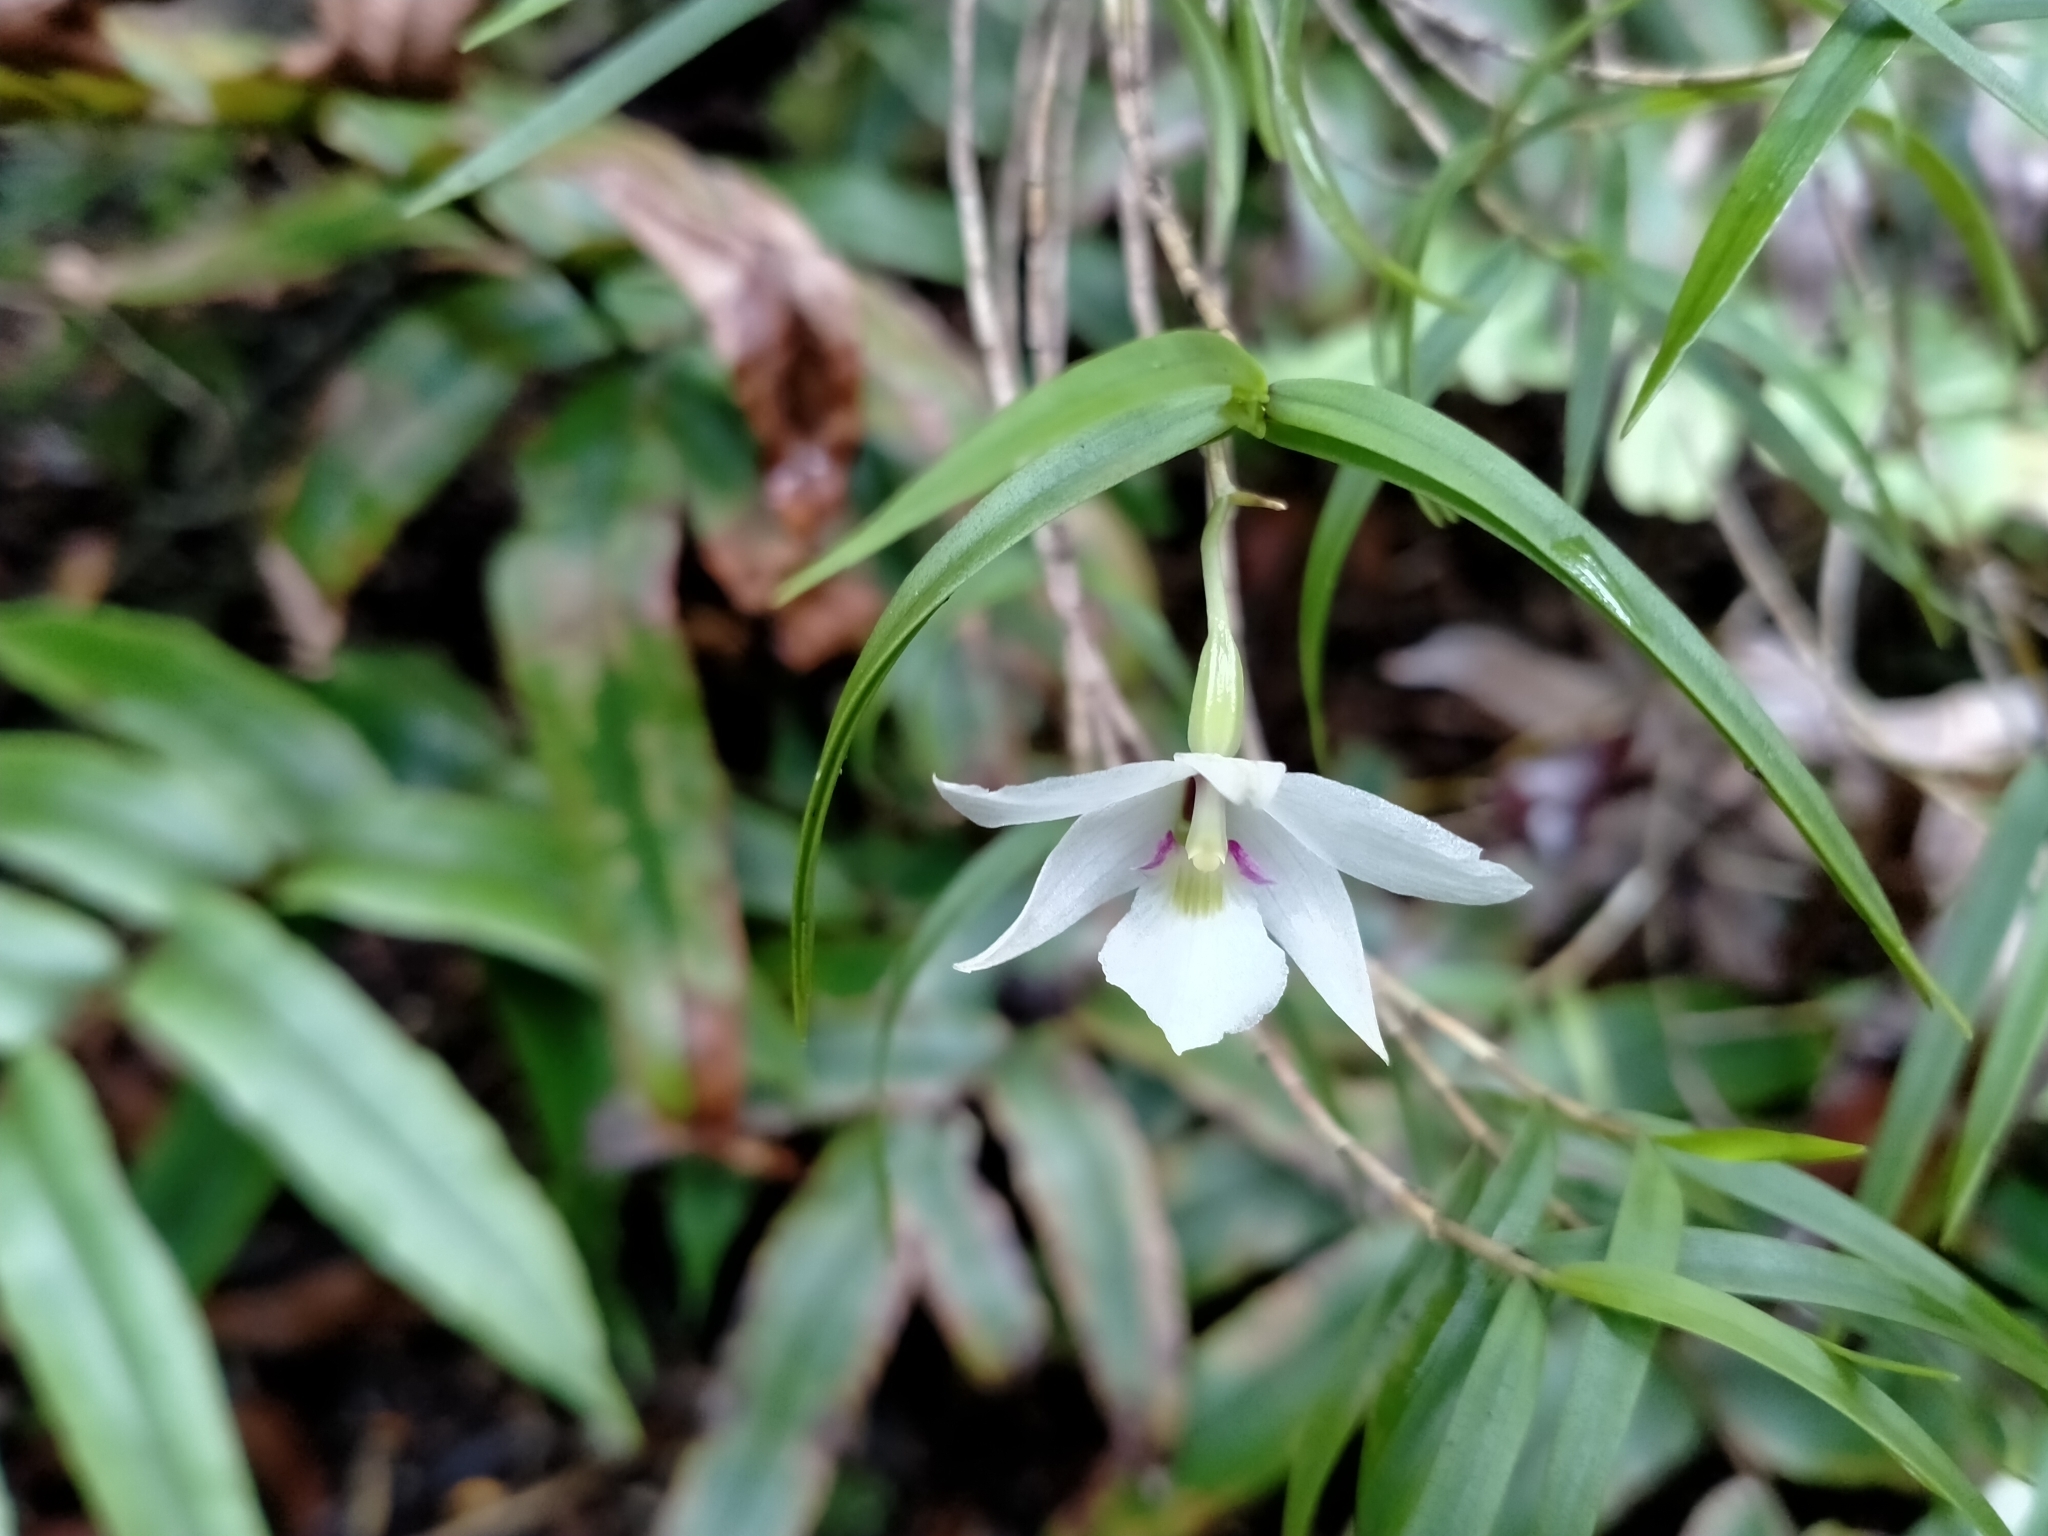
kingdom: Plantae
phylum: Tracheophyta
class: Liliopsida
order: Asparagales
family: Orchidaceae
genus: Dendrobium
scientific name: Dendrobium cunninghamii
